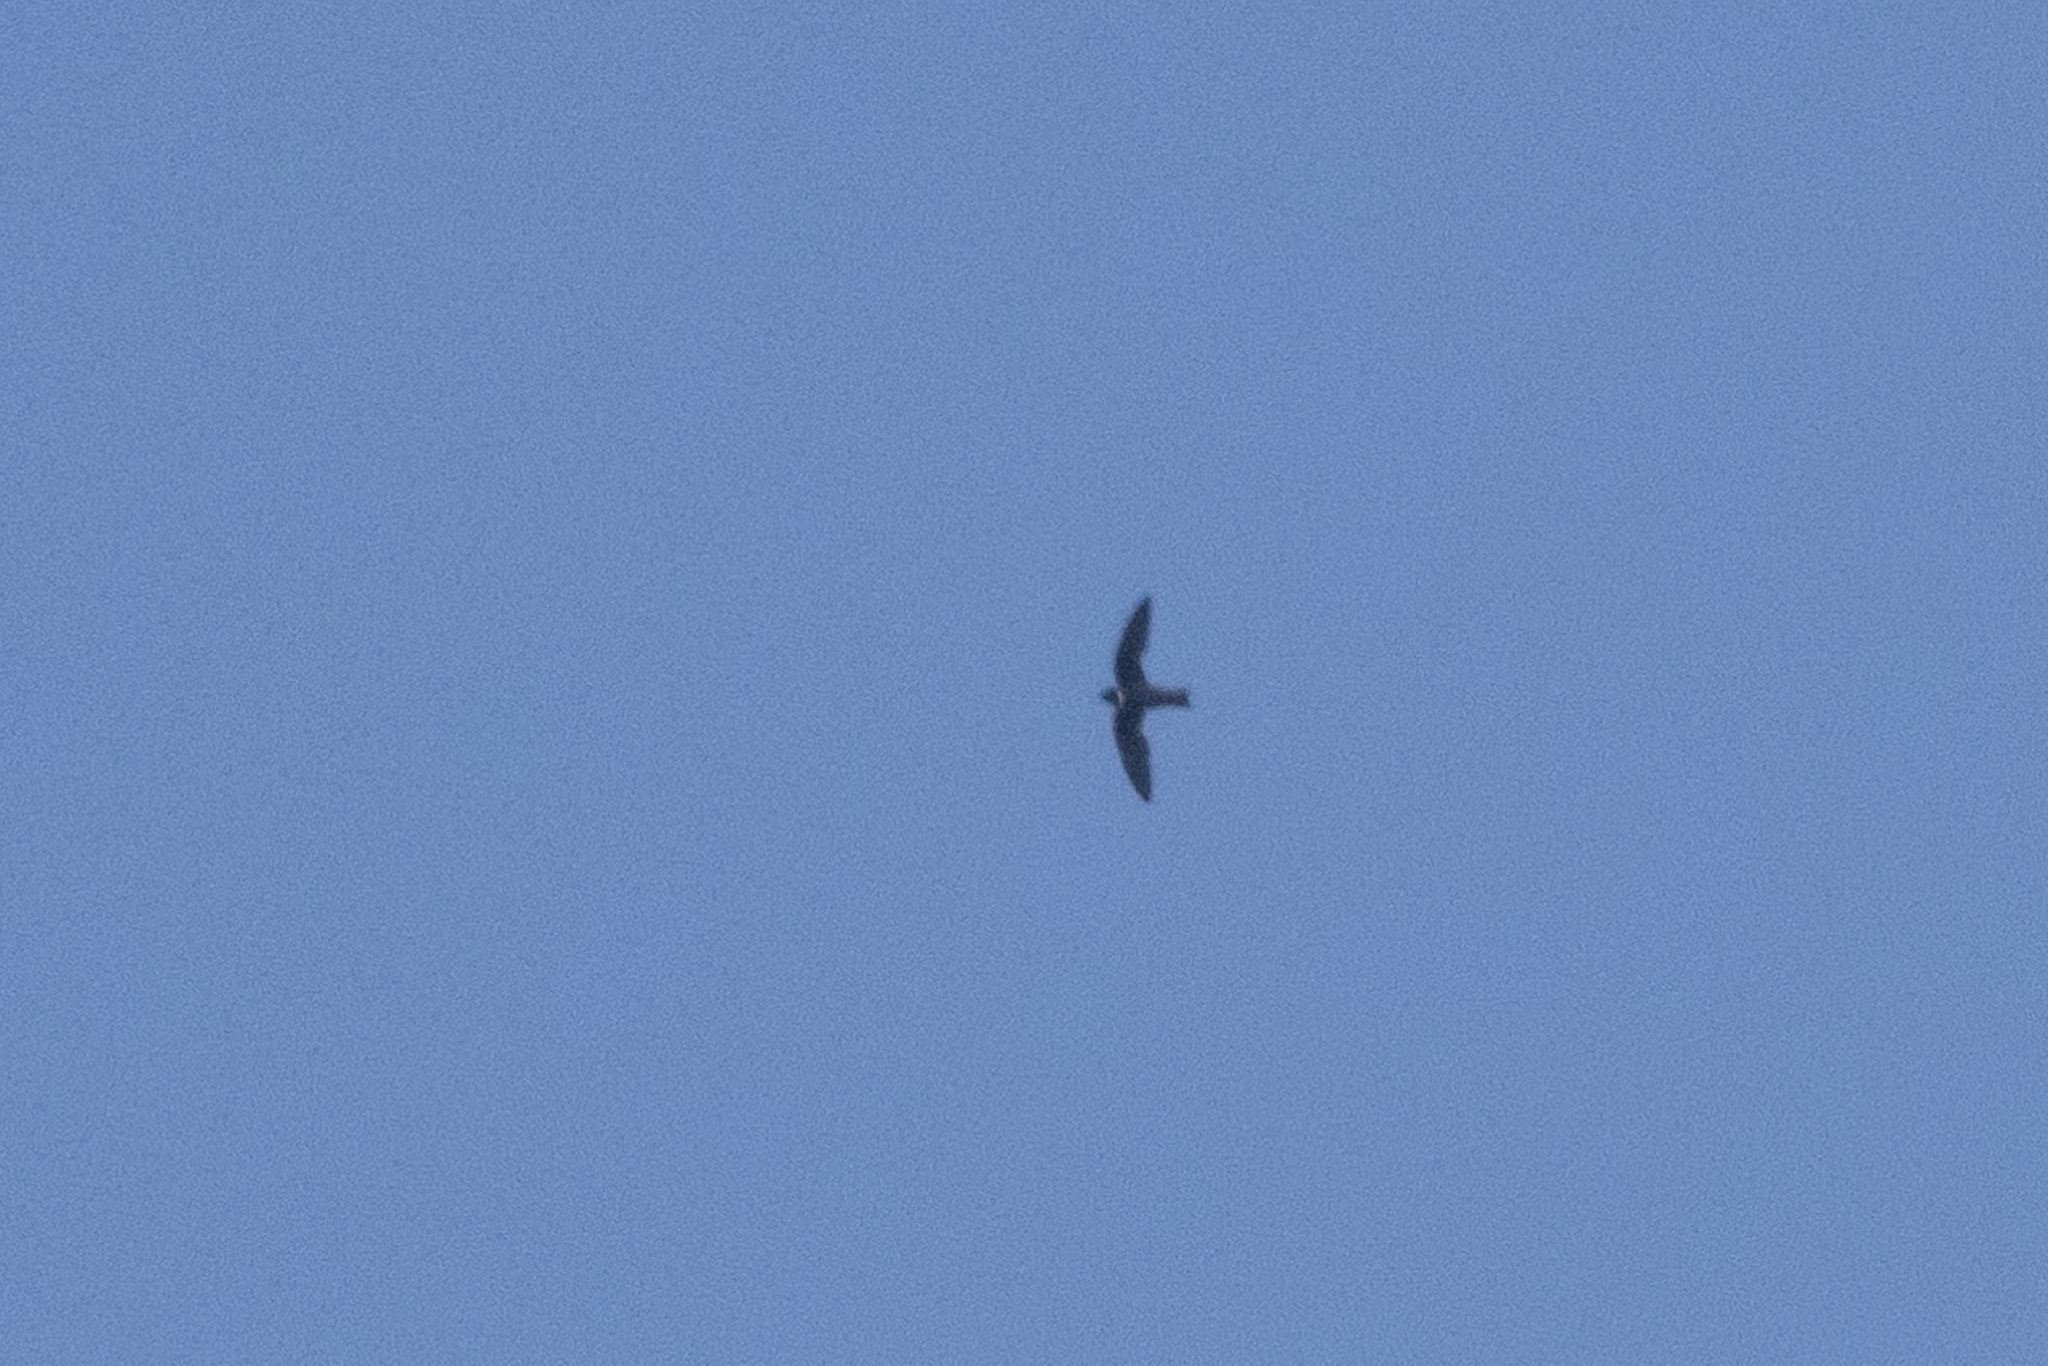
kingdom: Animalia
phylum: Chordata
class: Aves
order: Apodiformes
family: Apodidae
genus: Streptoprocne
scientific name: Streptoprocne zonaris
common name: White-collared swift
